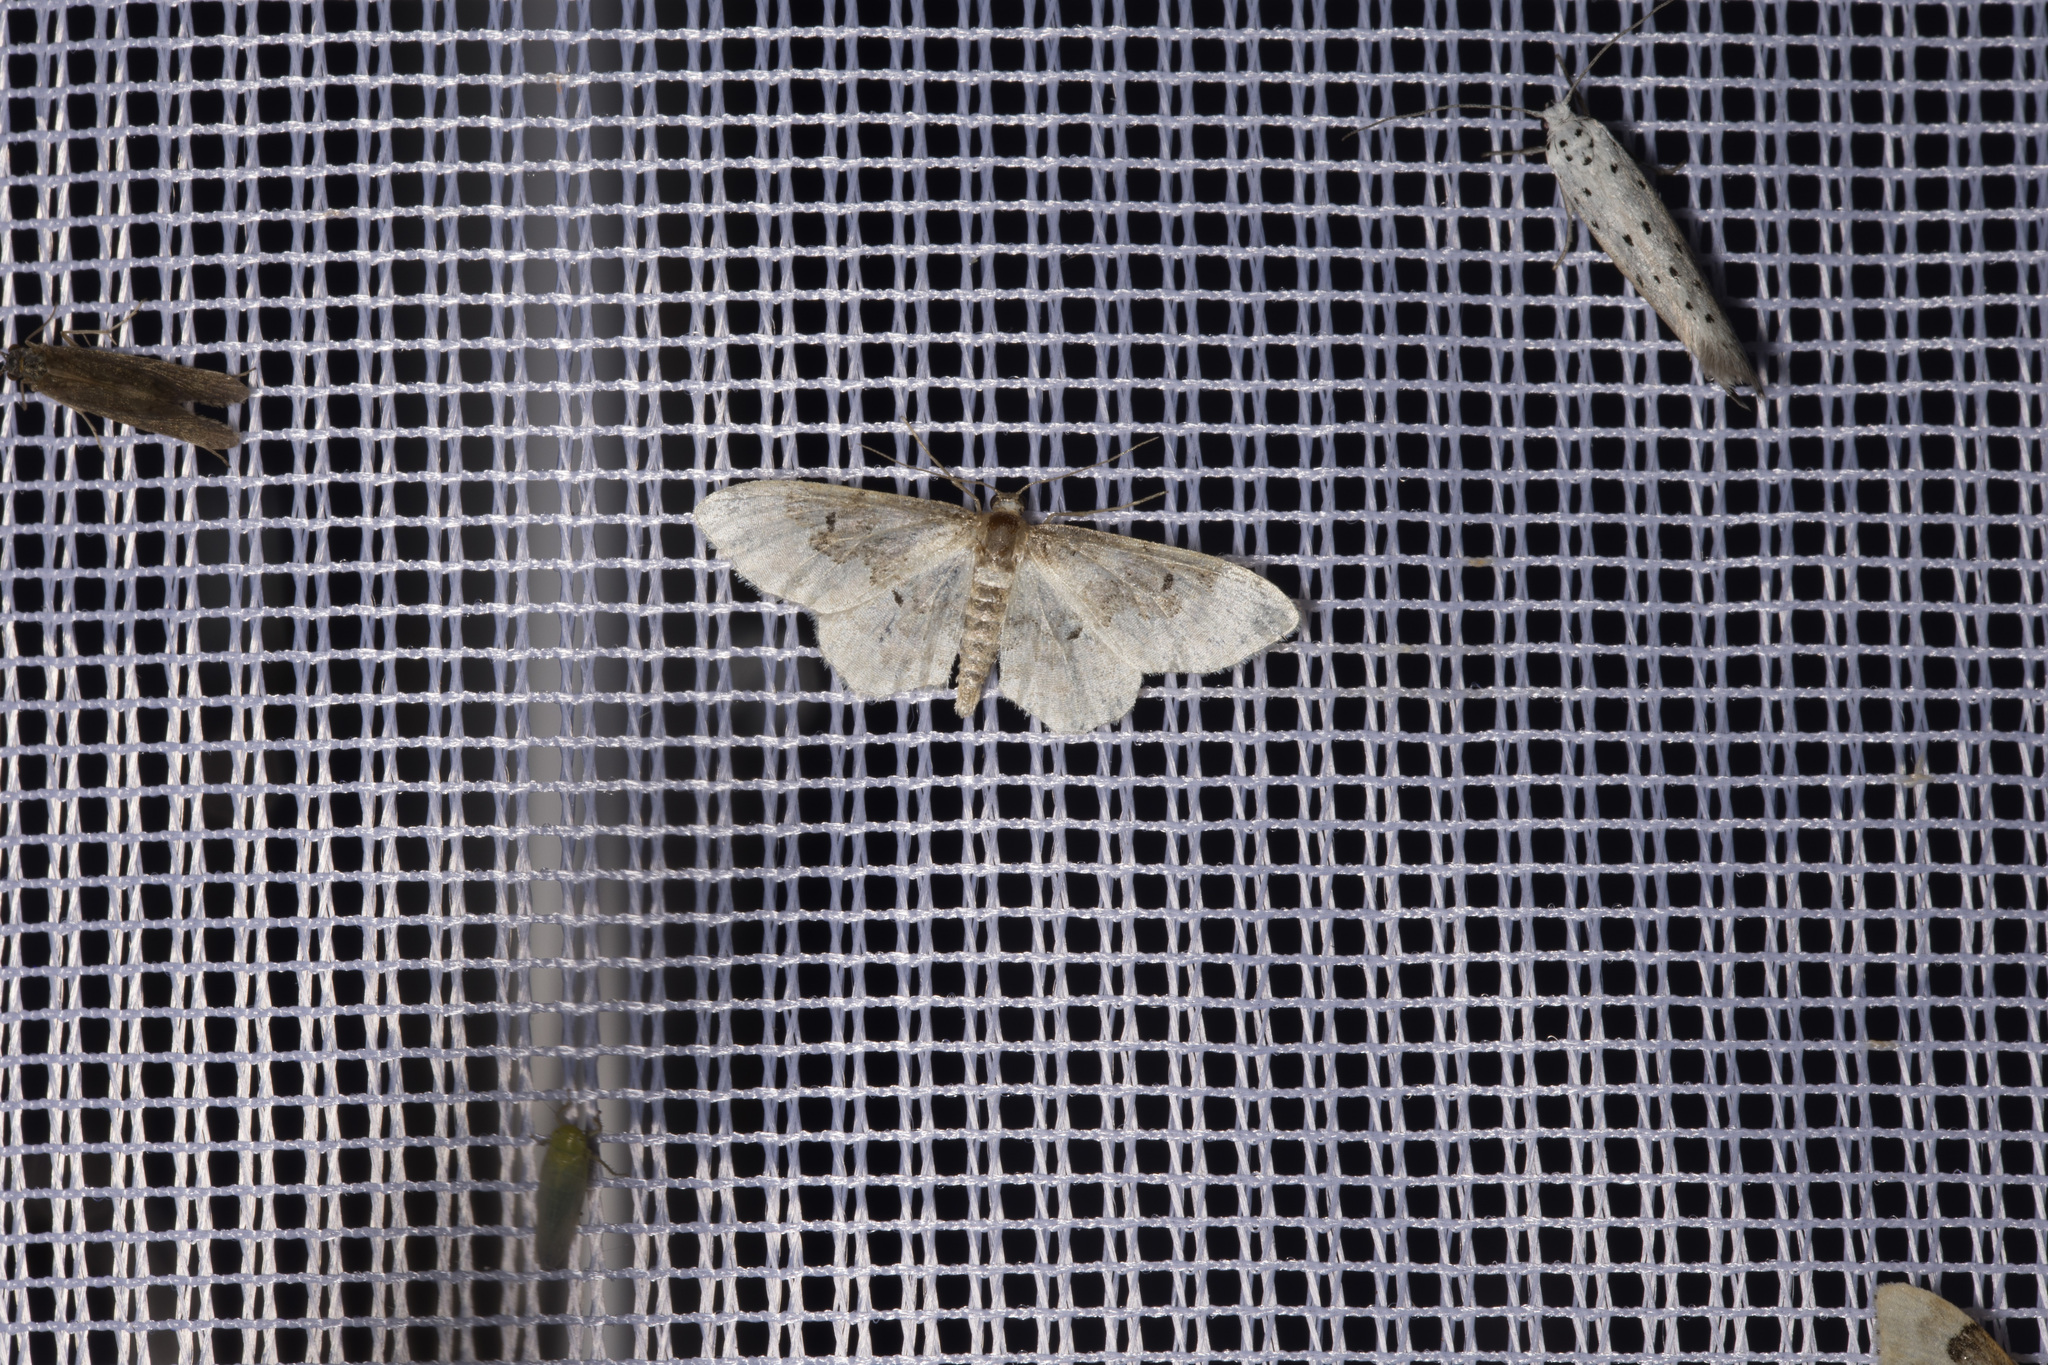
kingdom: Animalia
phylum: Arthropoda
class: Insecta
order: Lepidoptera
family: Geometridae
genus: Idaea
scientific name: Idaea rusticata
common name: Least carpet
